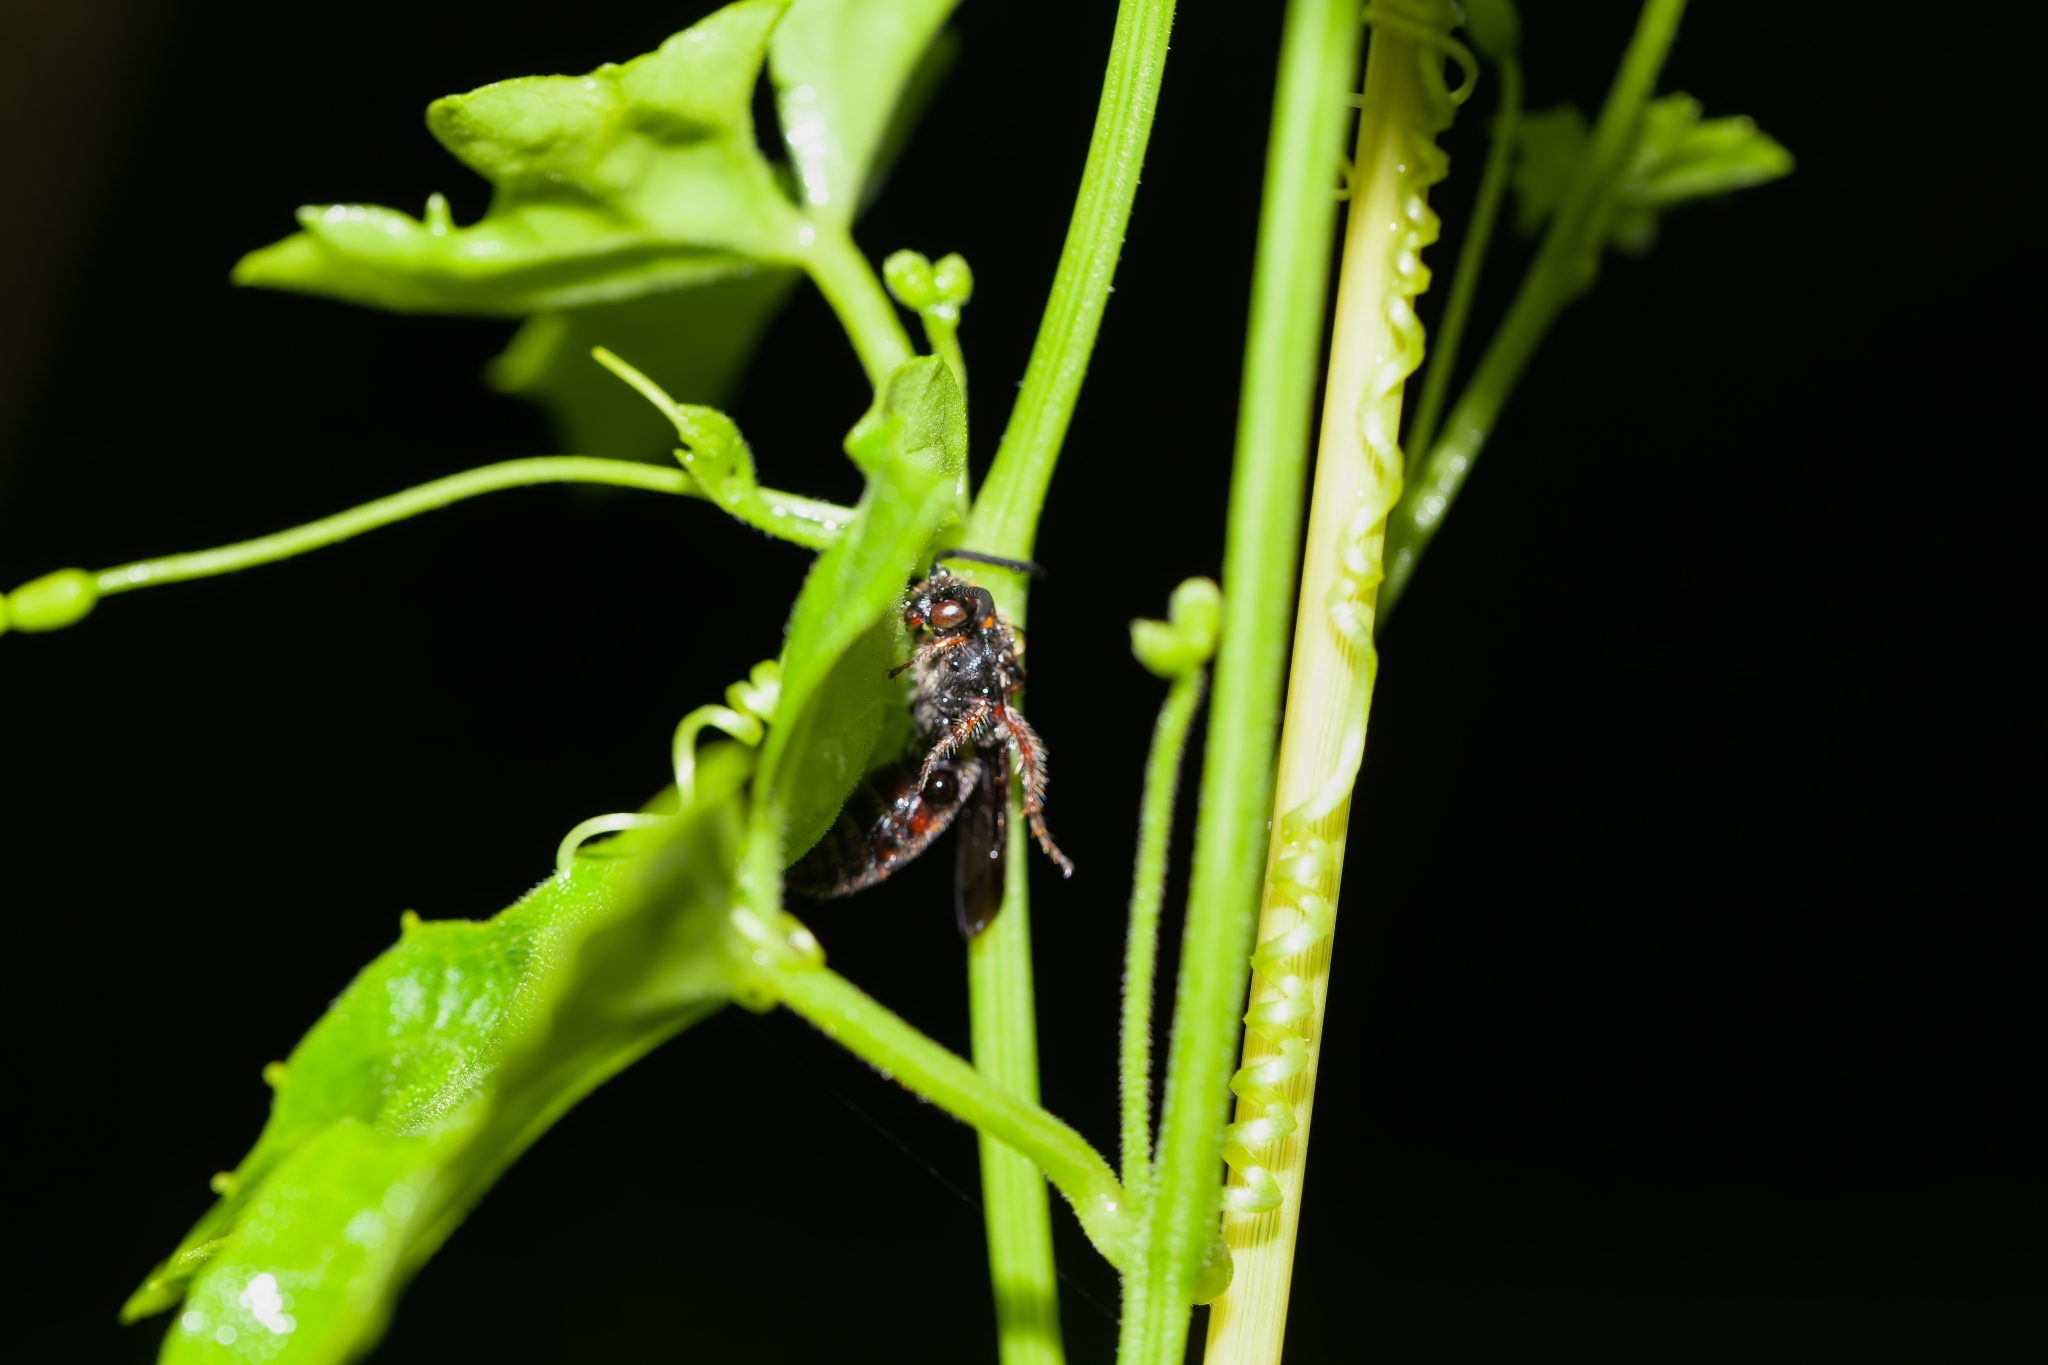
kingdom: Animalia
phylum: Arthropoda
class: Insecta
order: Hymenoptera
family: Scoliidae
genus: Scolia
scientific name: Scolia nobilitata
